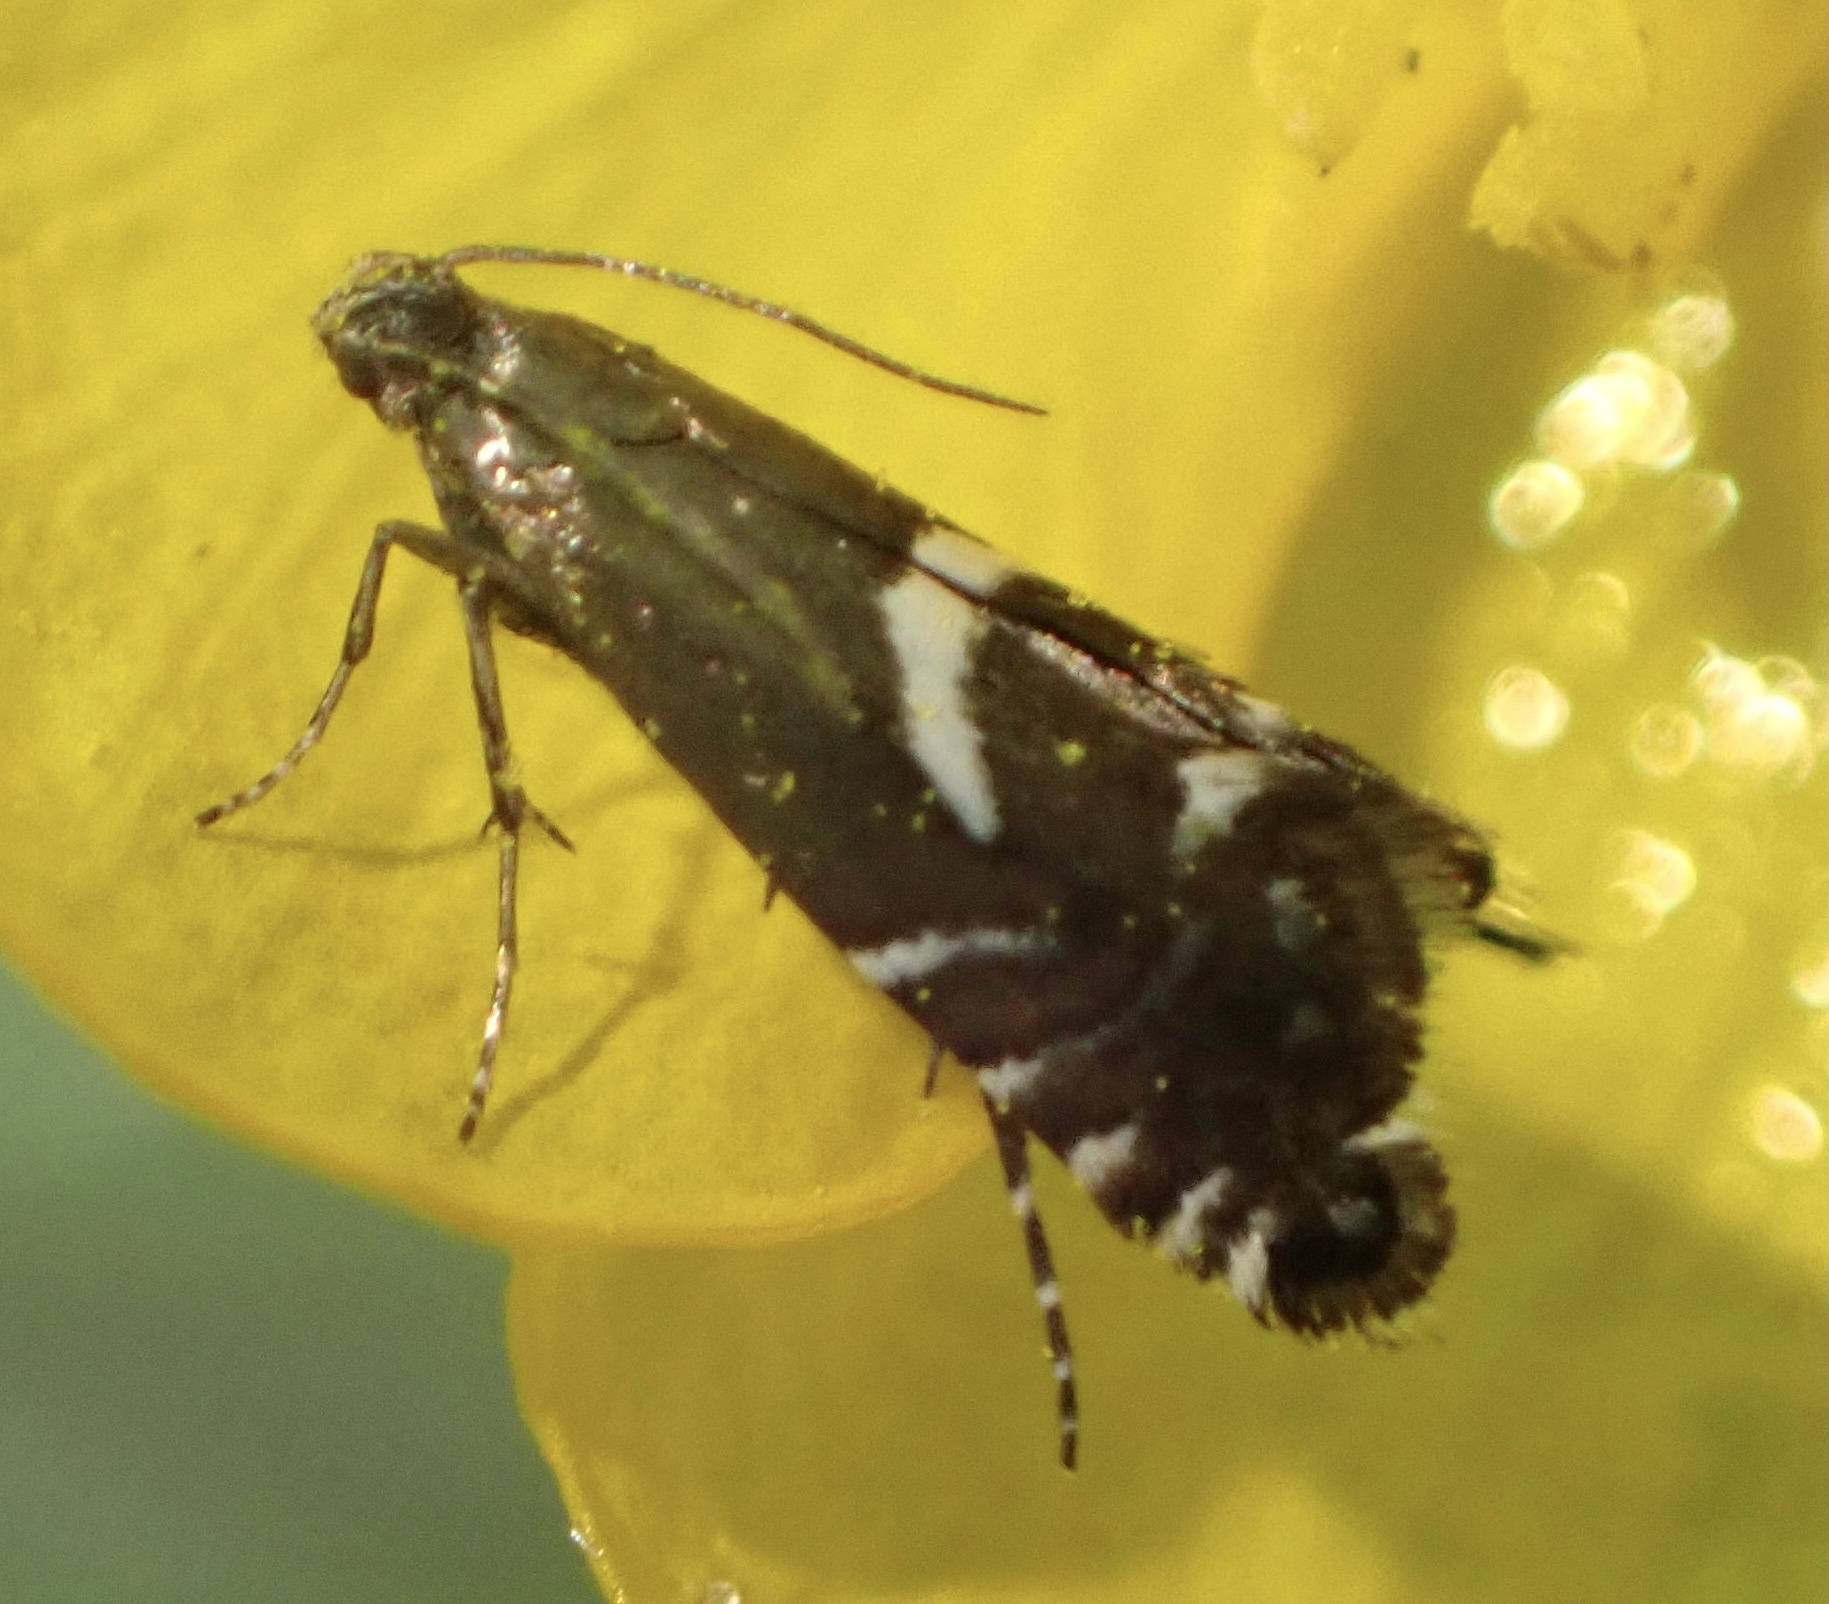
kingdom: Animalia
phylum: Arthropoda
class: Insecta
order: Lepidoptera
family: Glyphipterigidae
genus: Glyphipterix
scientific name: Glyphipterix forsterella
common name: Sedge fanner
